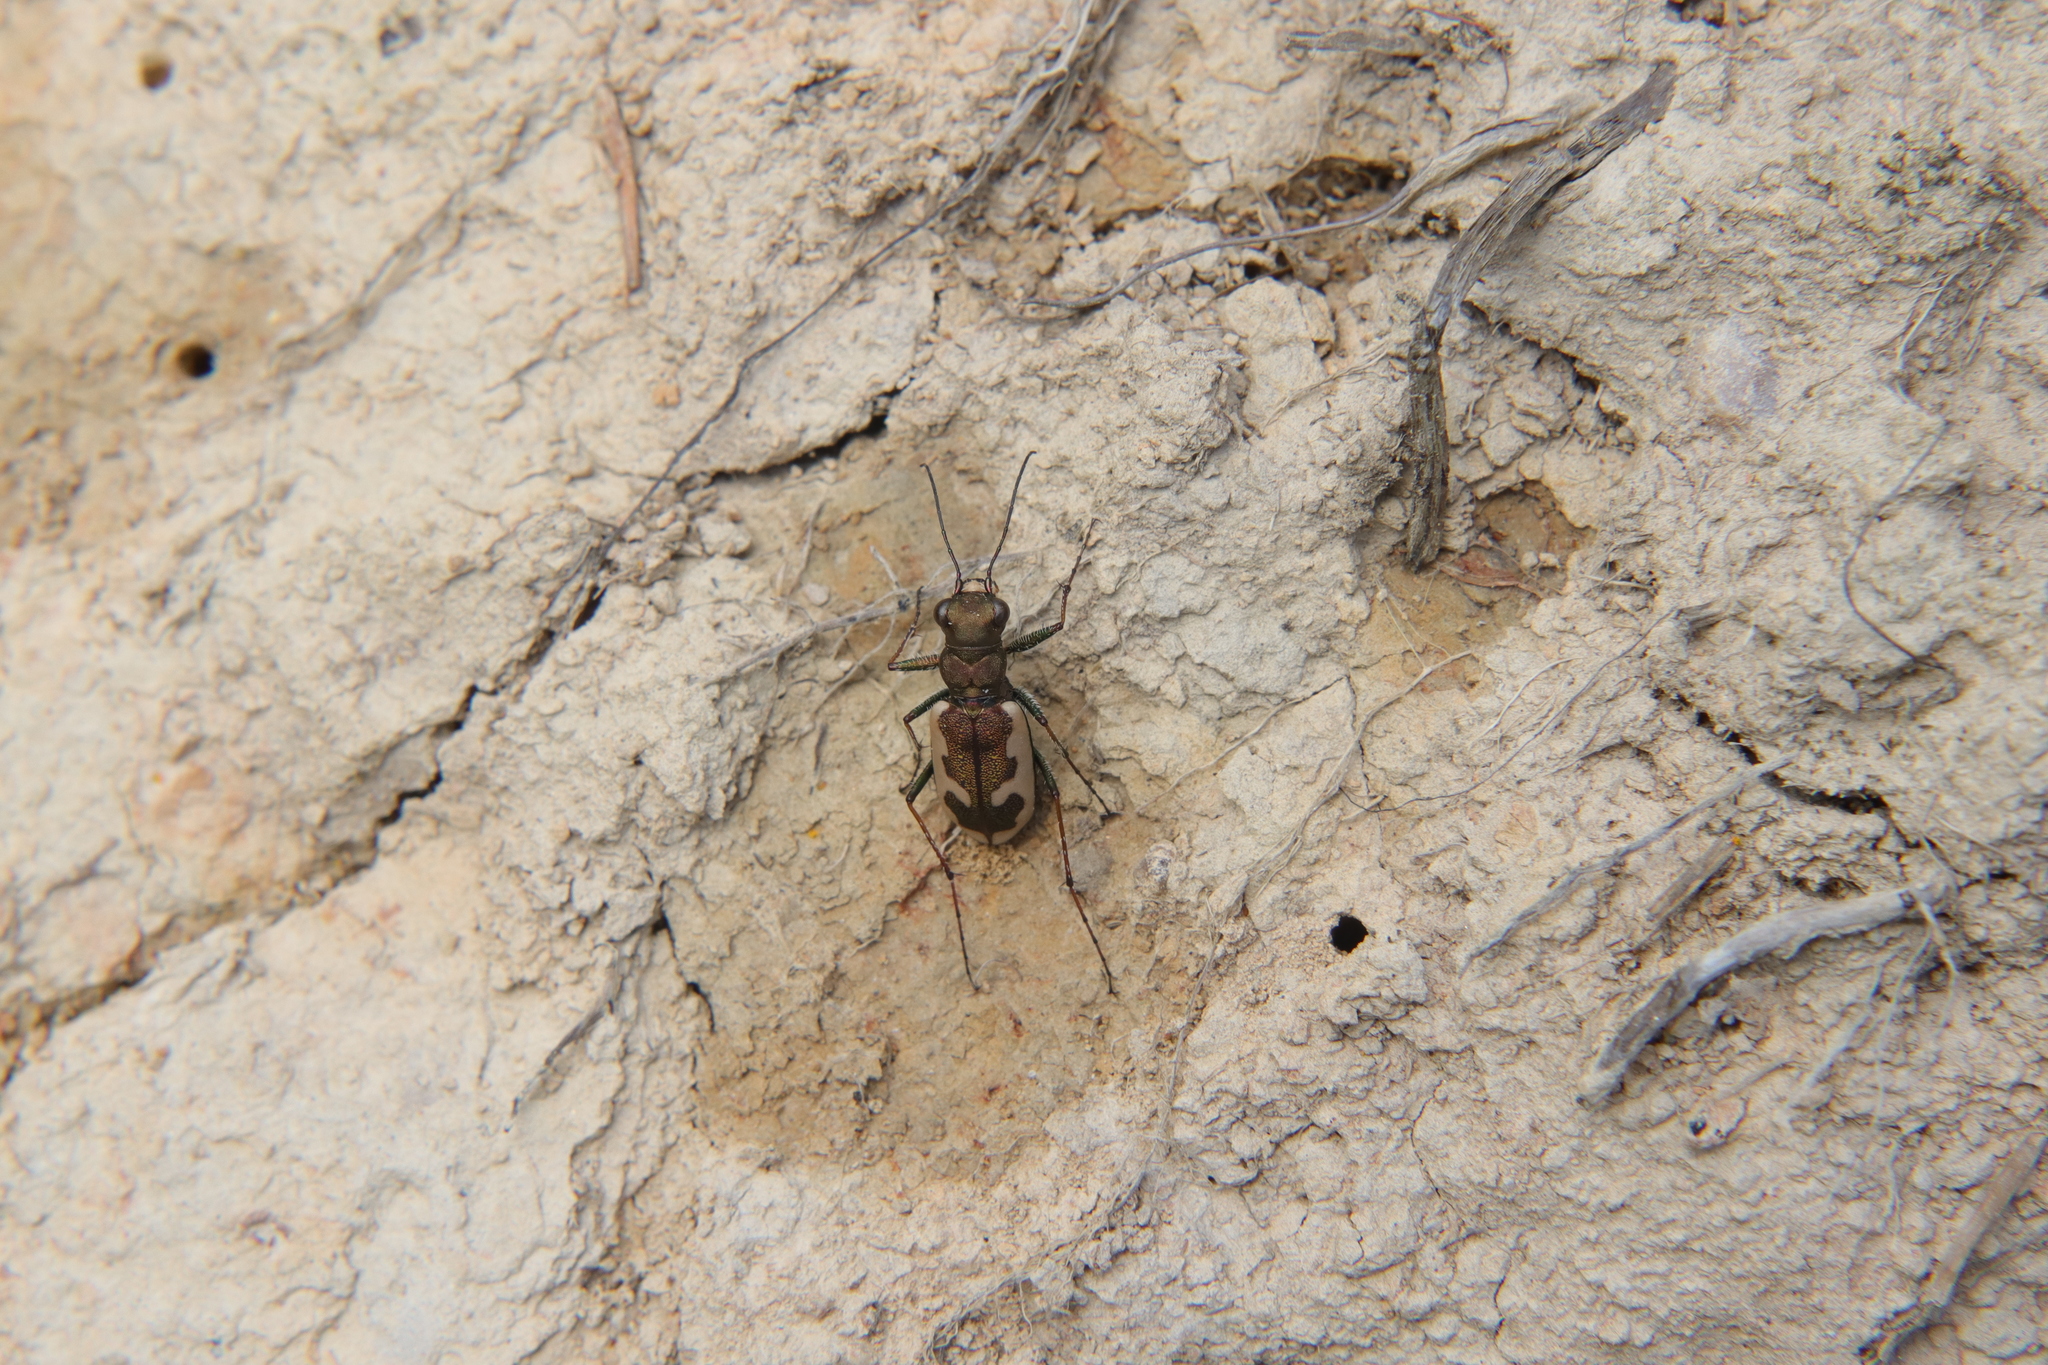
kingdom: Animalia
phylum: Arthropoda
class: Insecta
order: Coleoptera
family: Carabidae
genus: Neocicindela
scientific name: Neocicindela latecincta
